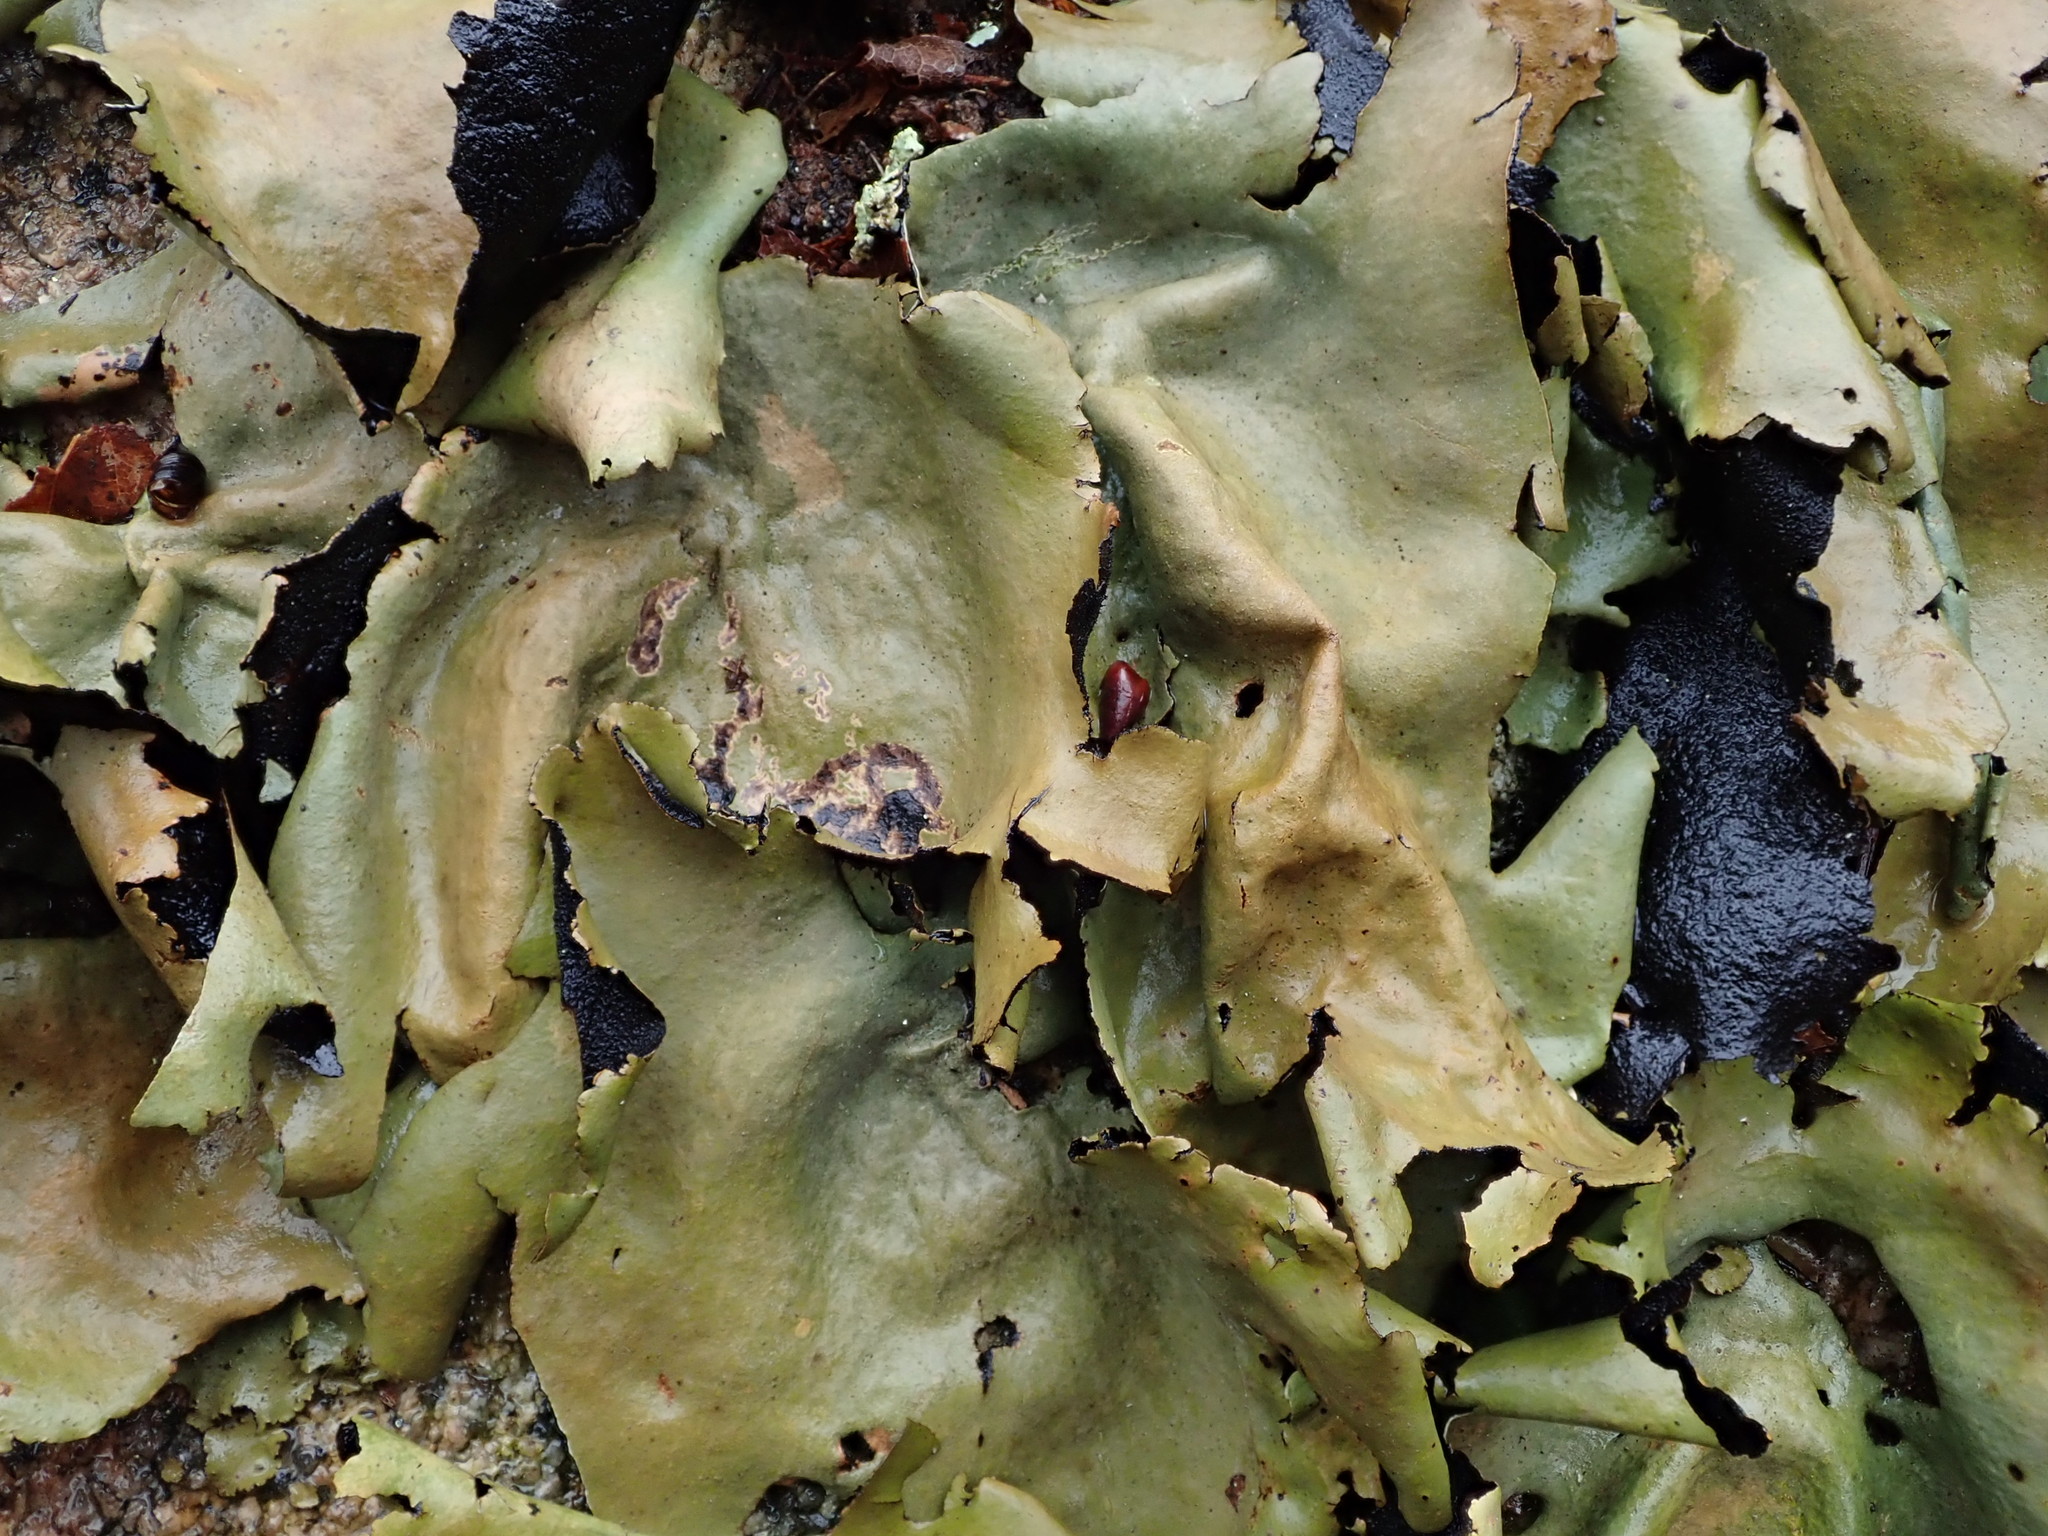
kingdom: Fungi
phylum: Ascomycota
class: Lecanoromycetes
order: Umbilicariales
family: Umbilicariaceae
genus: Umbilicaria
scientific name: Umbilicaria mammulata
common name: Smooth rock tripe
